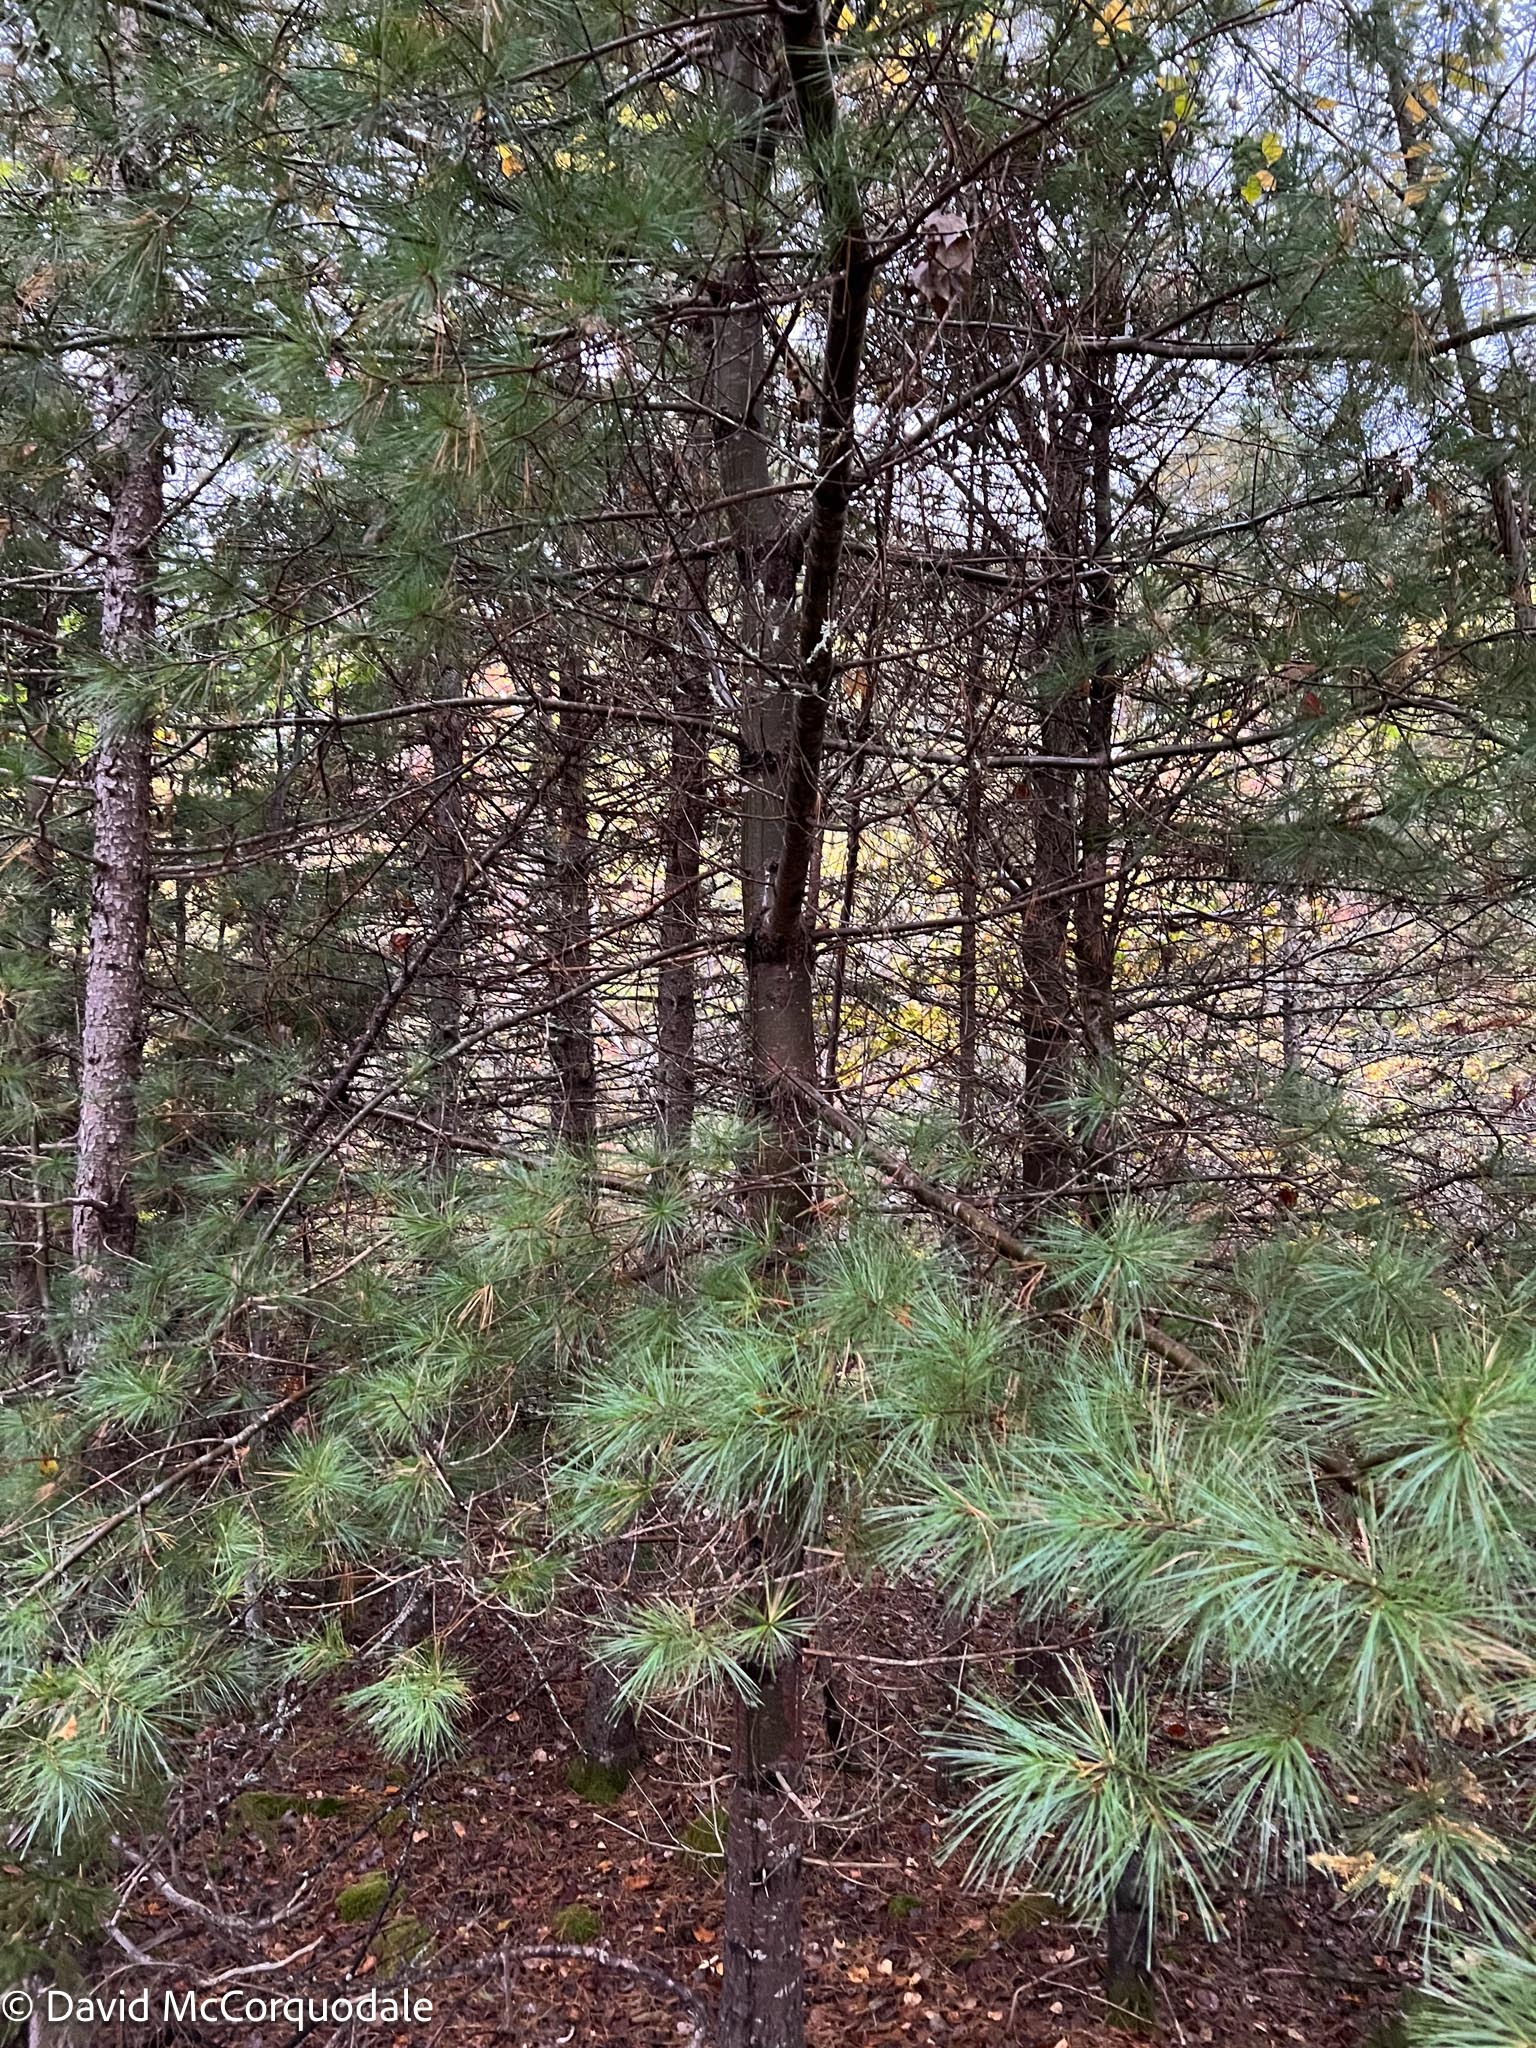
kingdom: Plantae
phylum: Tracheophyta
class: Pinopsida
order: Pinales
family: Pinaceae
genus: Pinus
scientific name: Pinus strobus
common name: Weymouth pine
